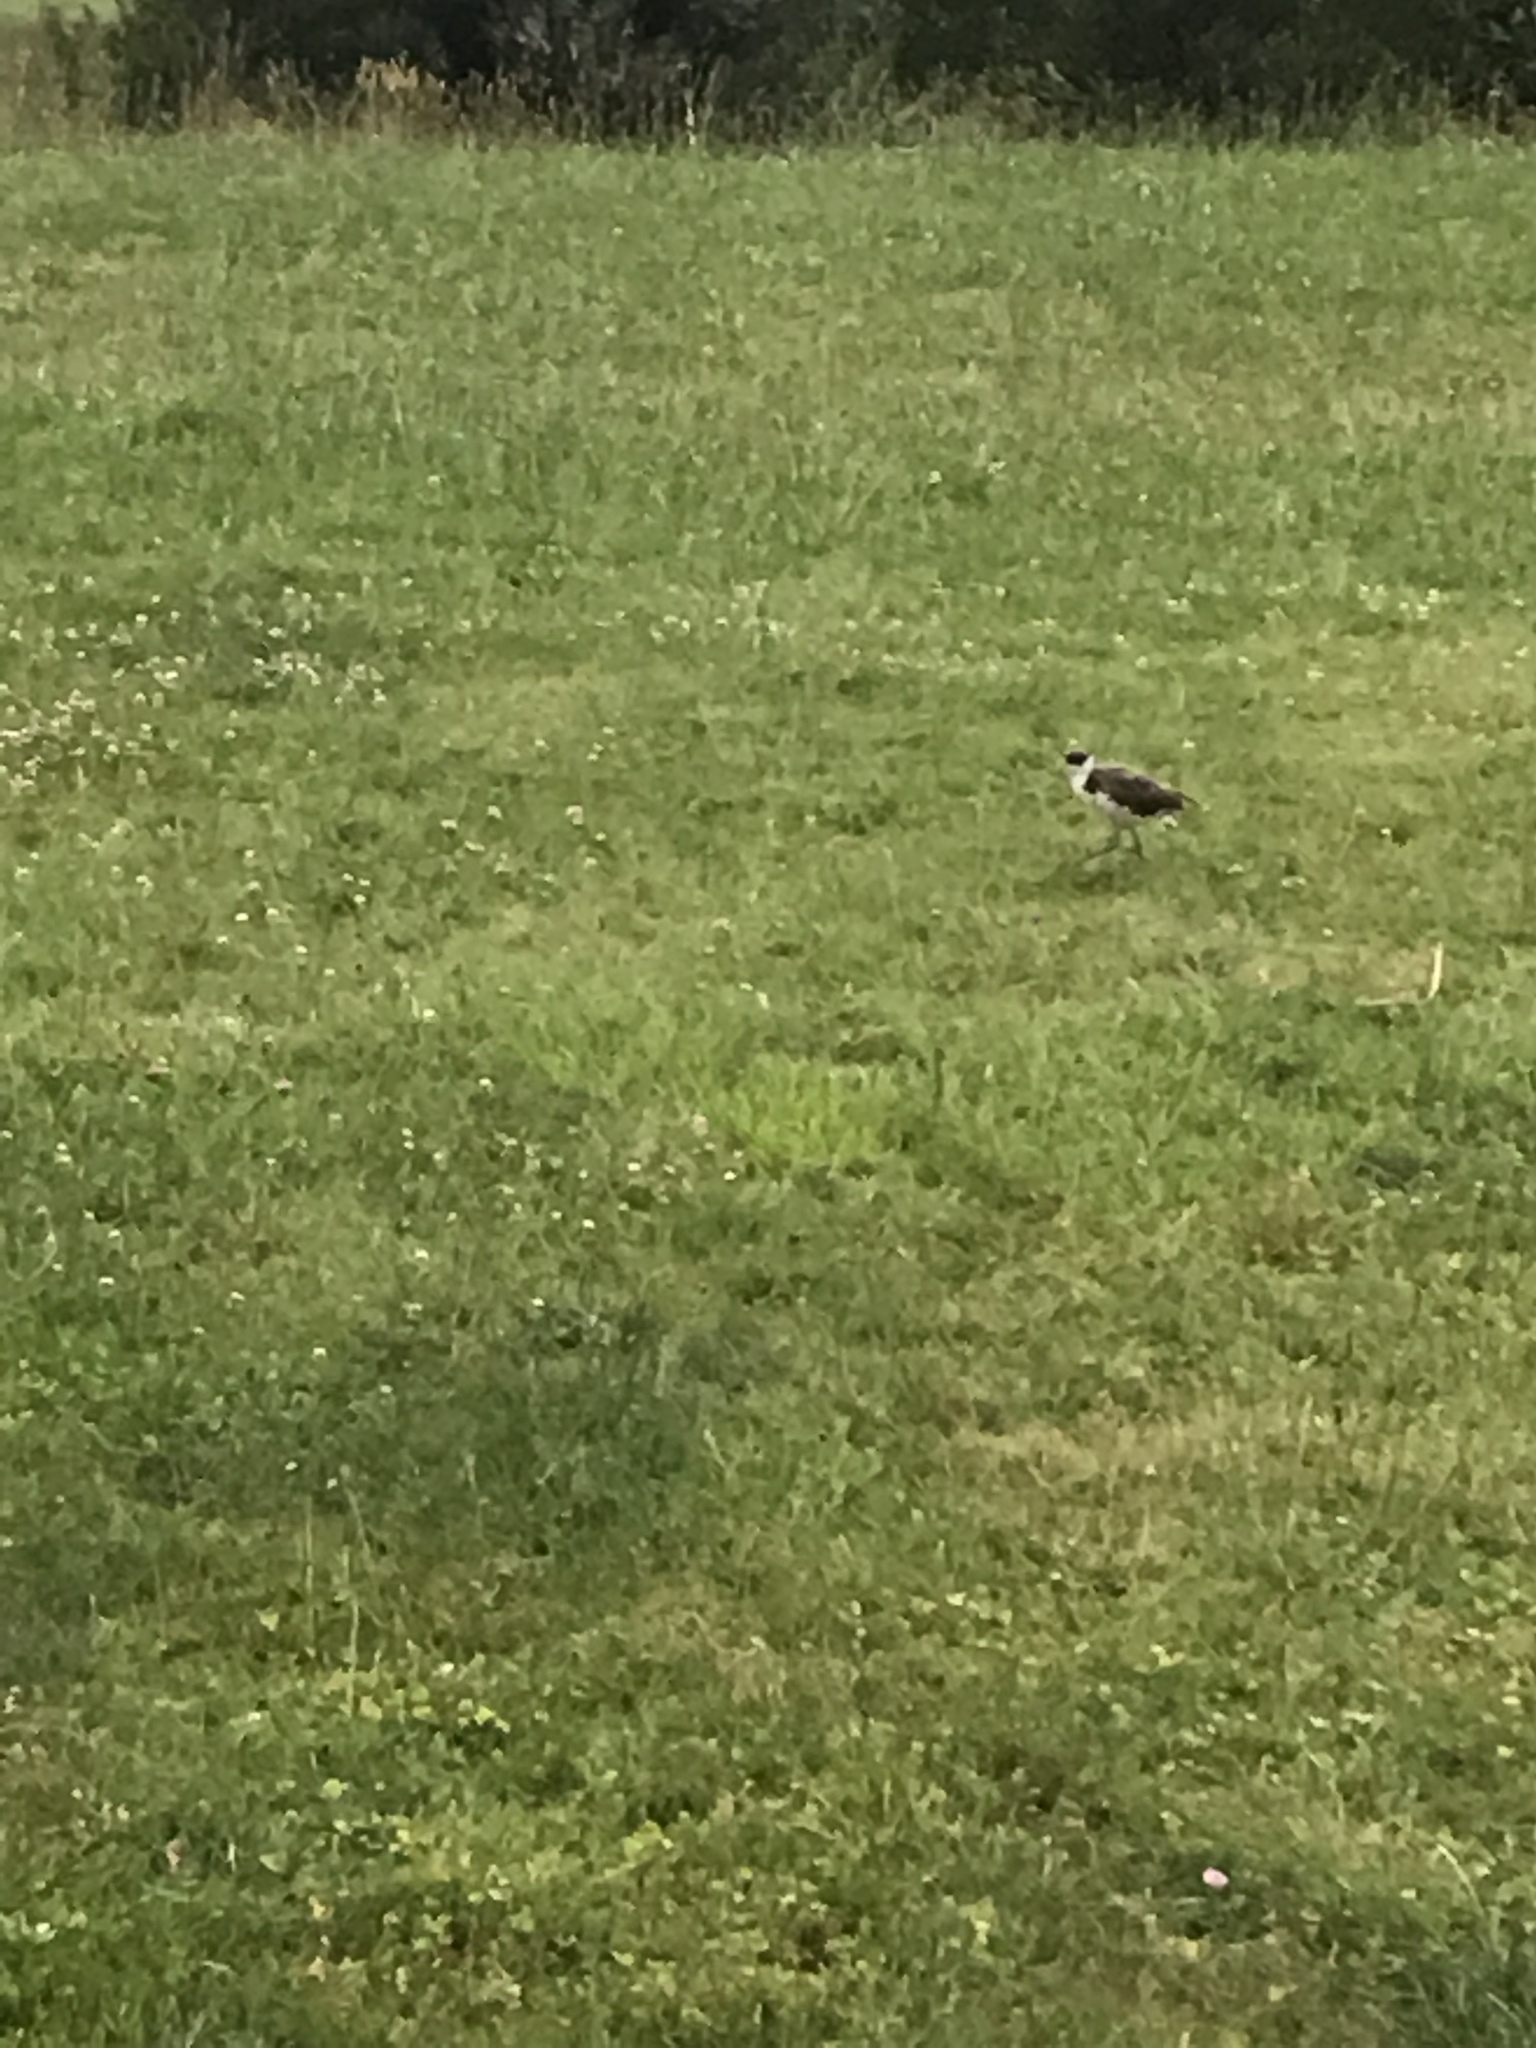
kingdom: Animalia
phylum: Chordata
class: Aves
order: Charadriiformes
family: Charadriidae
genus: Vanellus
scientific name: Vanellus miles
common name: Masked lapwing
